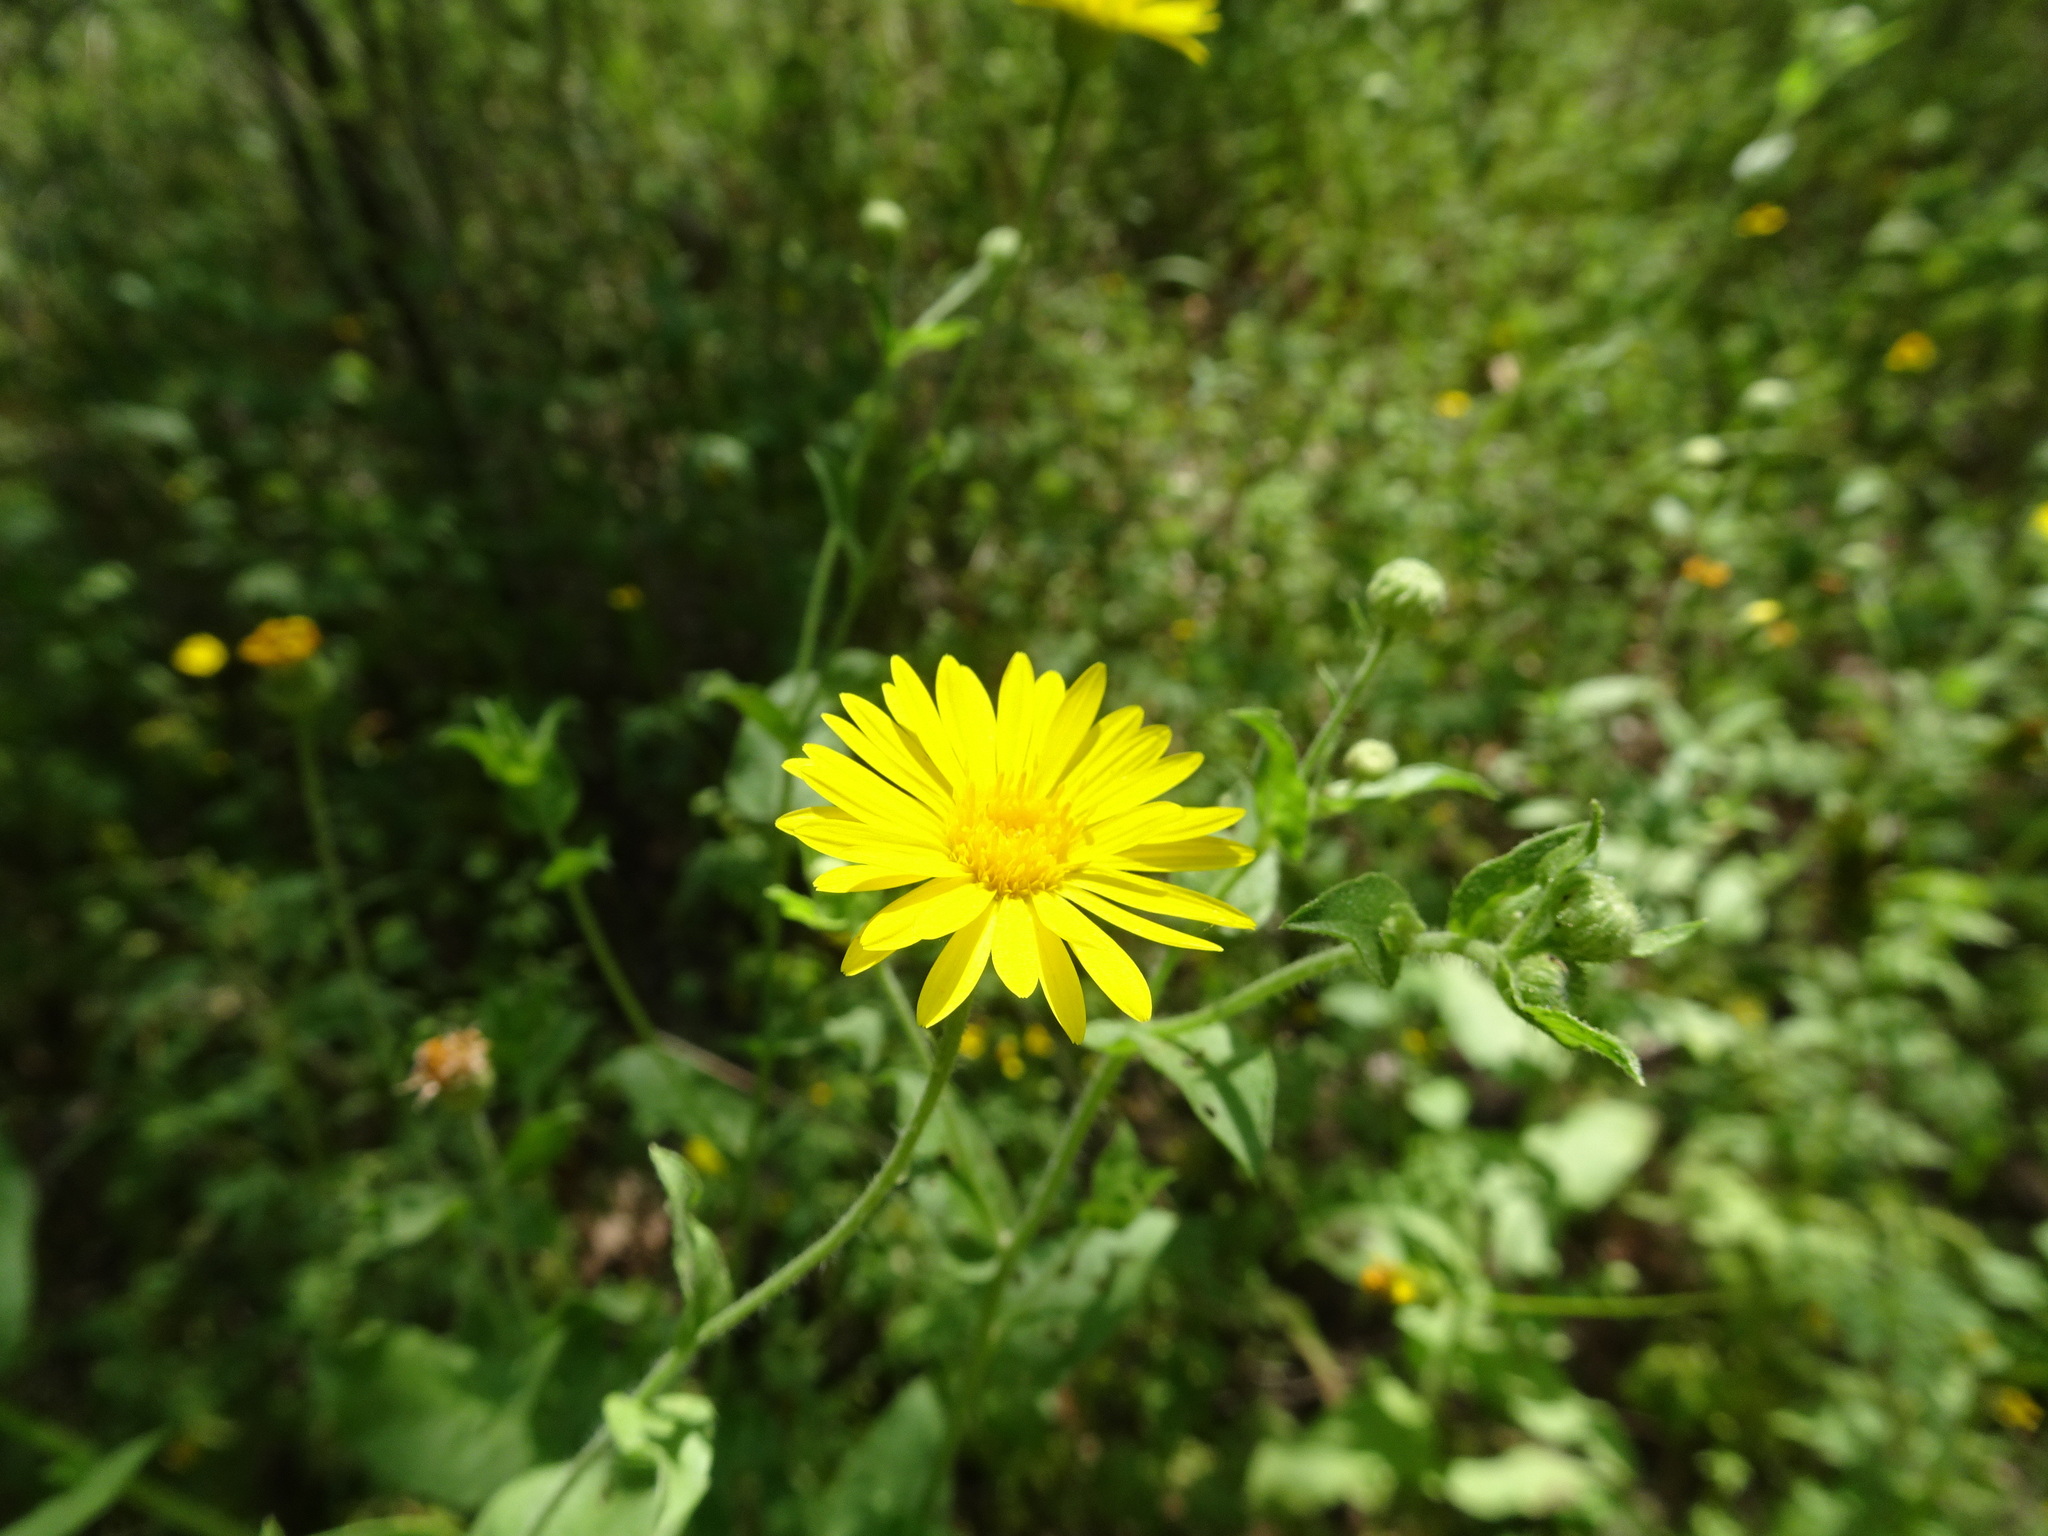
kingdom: Plantae
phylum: Tracheophyta
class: Magnoliopsida
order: Asterales
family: Asteraceae
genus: Heterotheca
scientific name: Heterotheca subaxillaris
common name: Camphorweed
